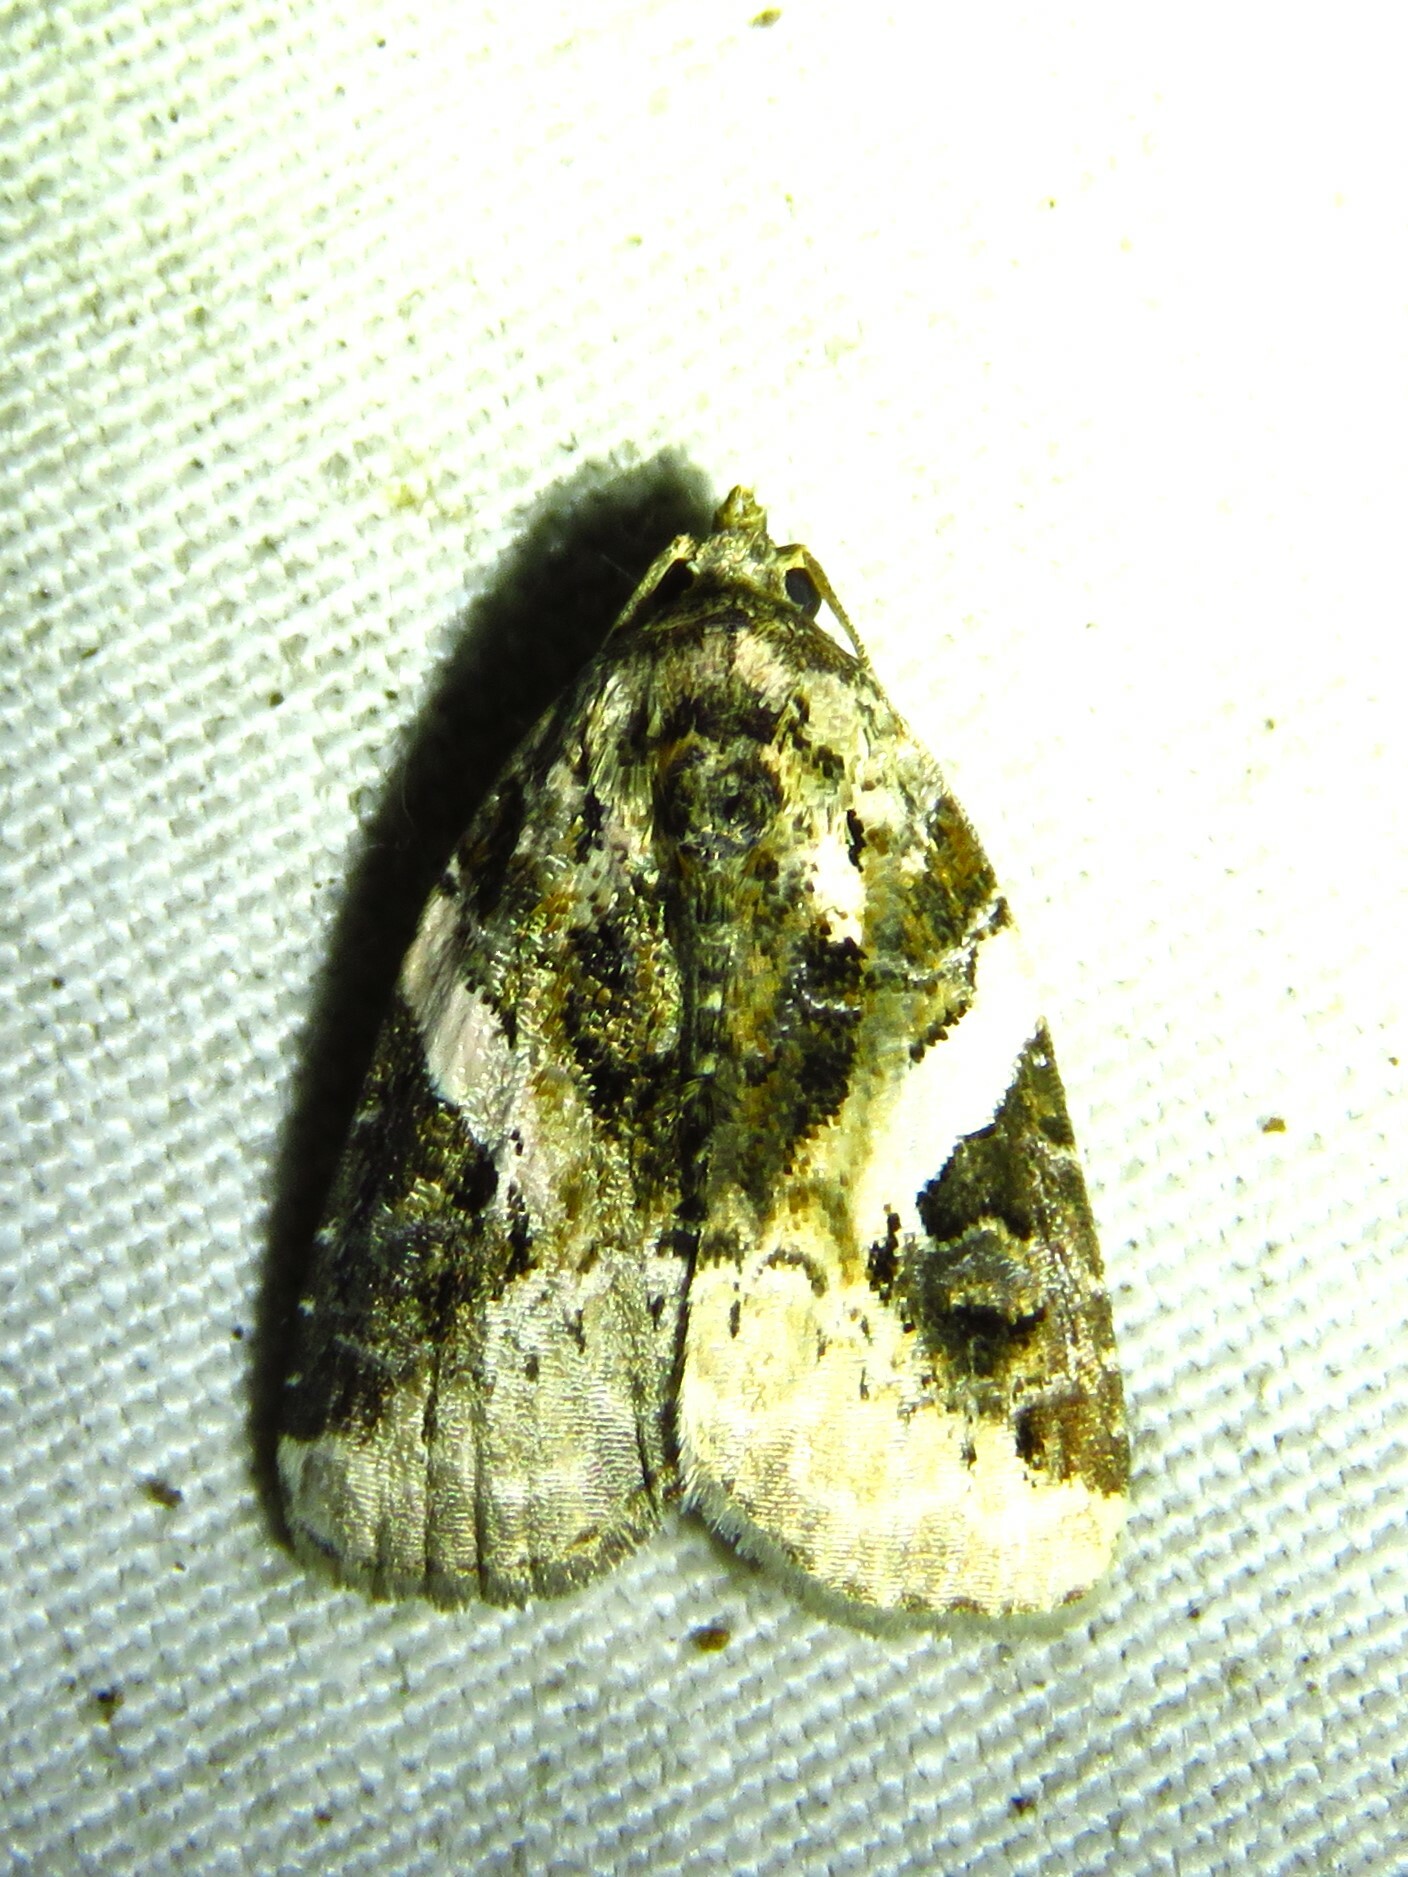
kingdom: Animalia
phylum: Arthropoda
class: Insecta
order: Lepidoptera
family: Noctuidae
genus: Pseudeustrotia
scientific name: Pseudeustrotia carneola
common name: Pink-barred lithacodia moth
